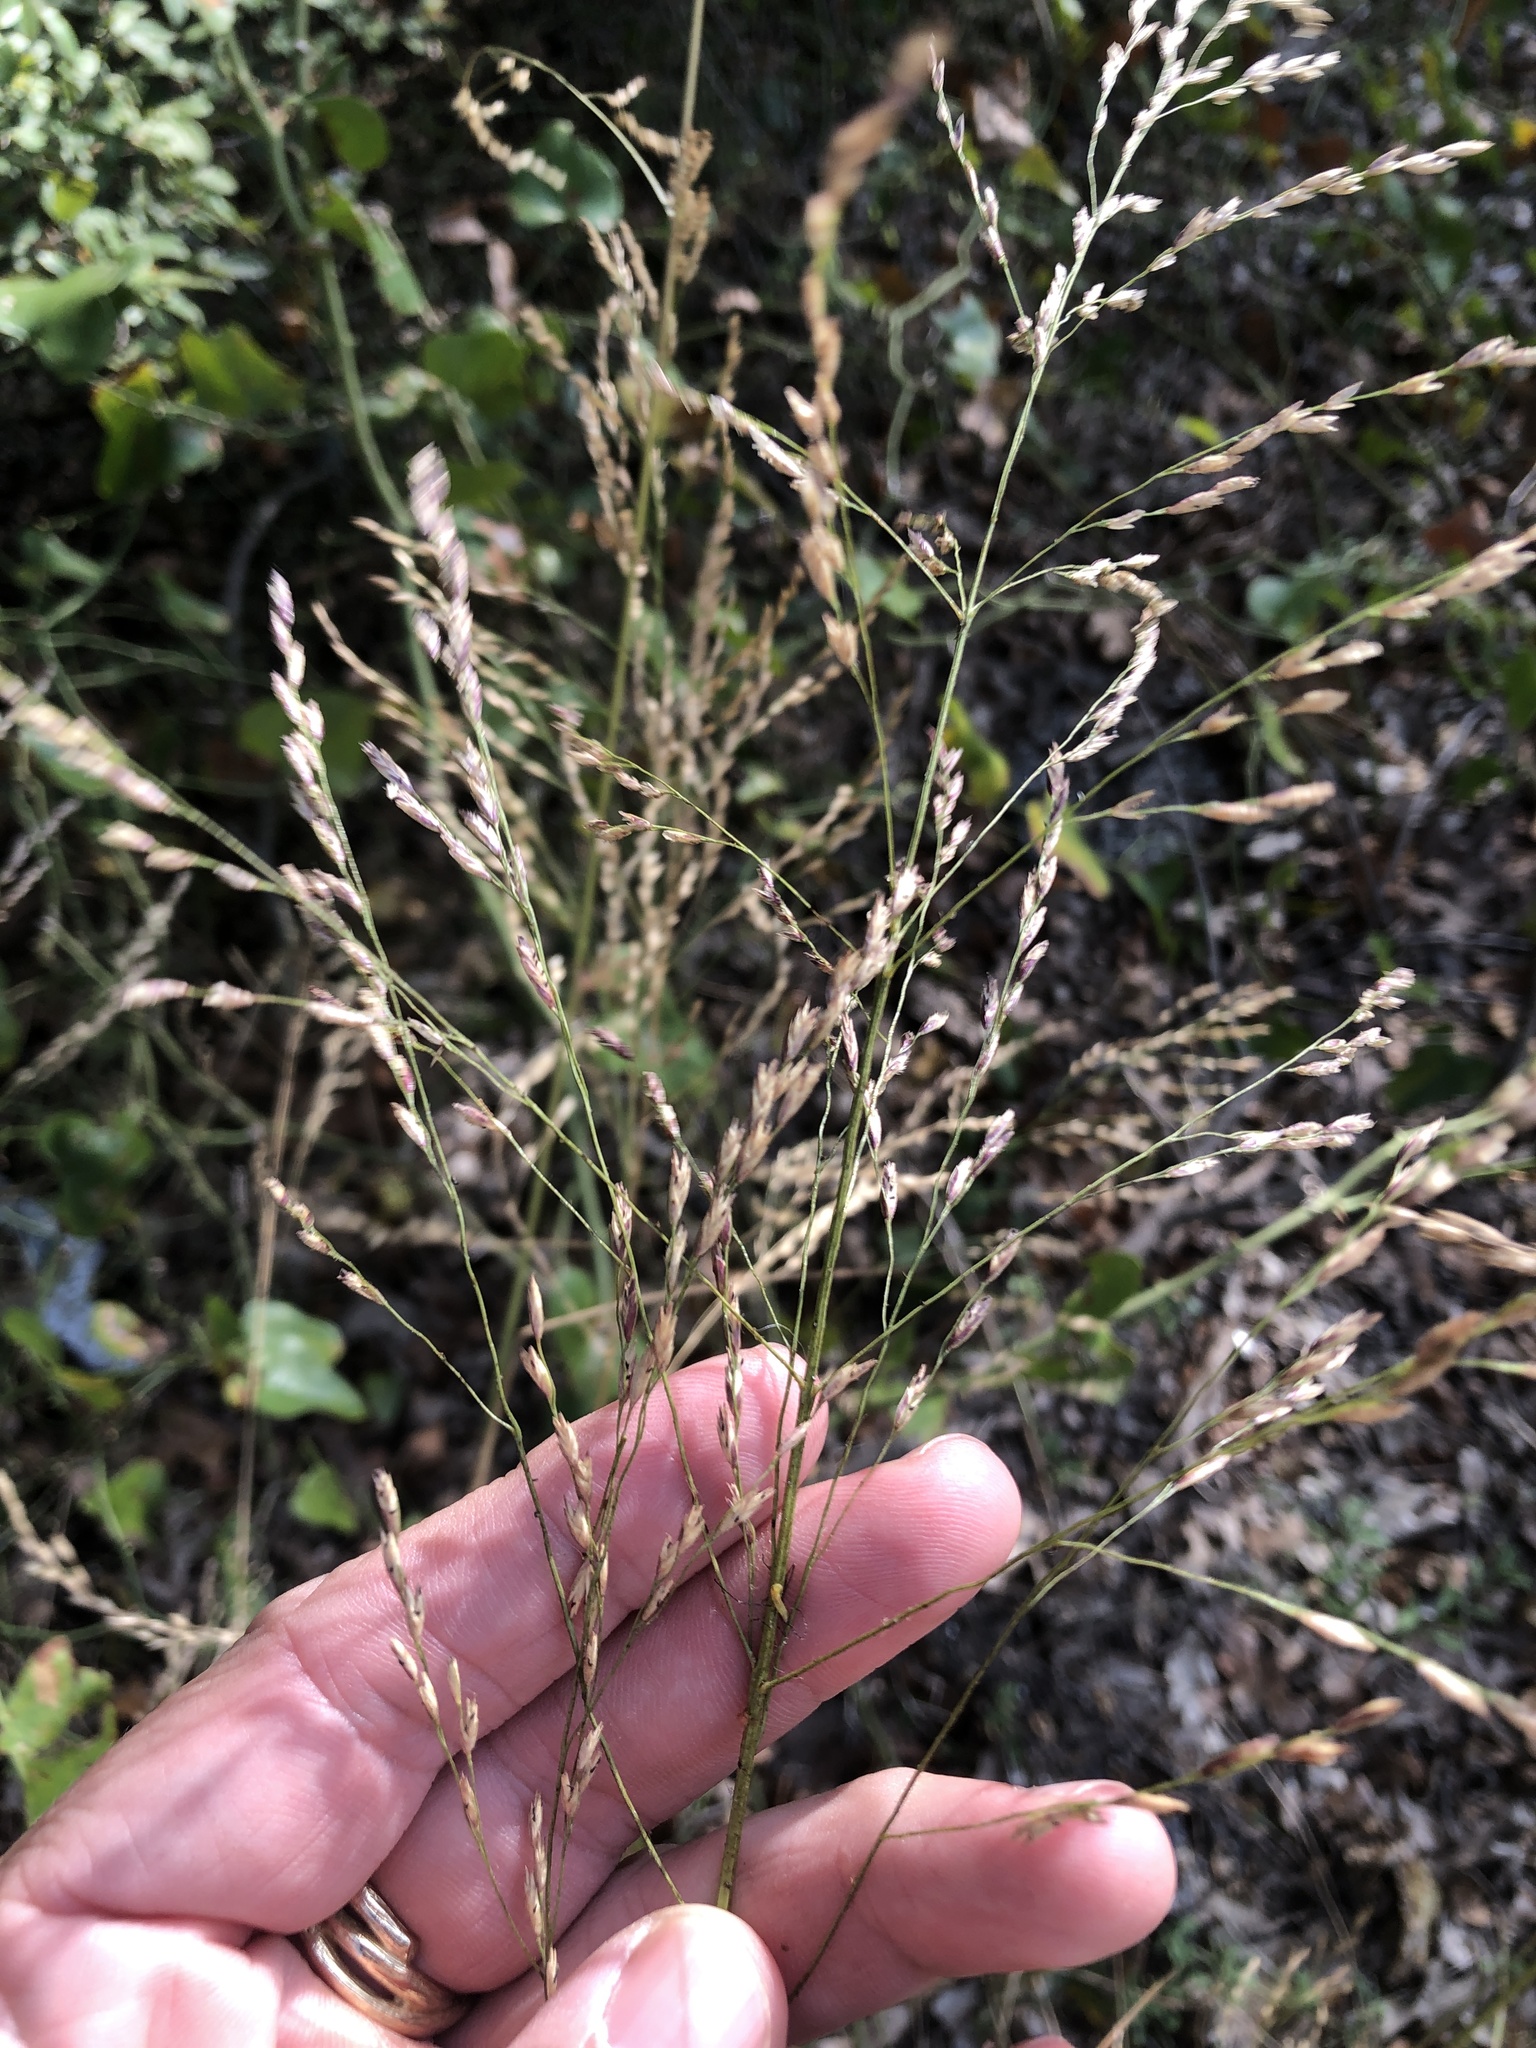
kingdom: Plantae
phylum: Tracheophyta
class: Liliopsida
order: Poales
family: Poaceae
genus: Tridens
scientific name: Tridens flavus
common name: Purpletop
